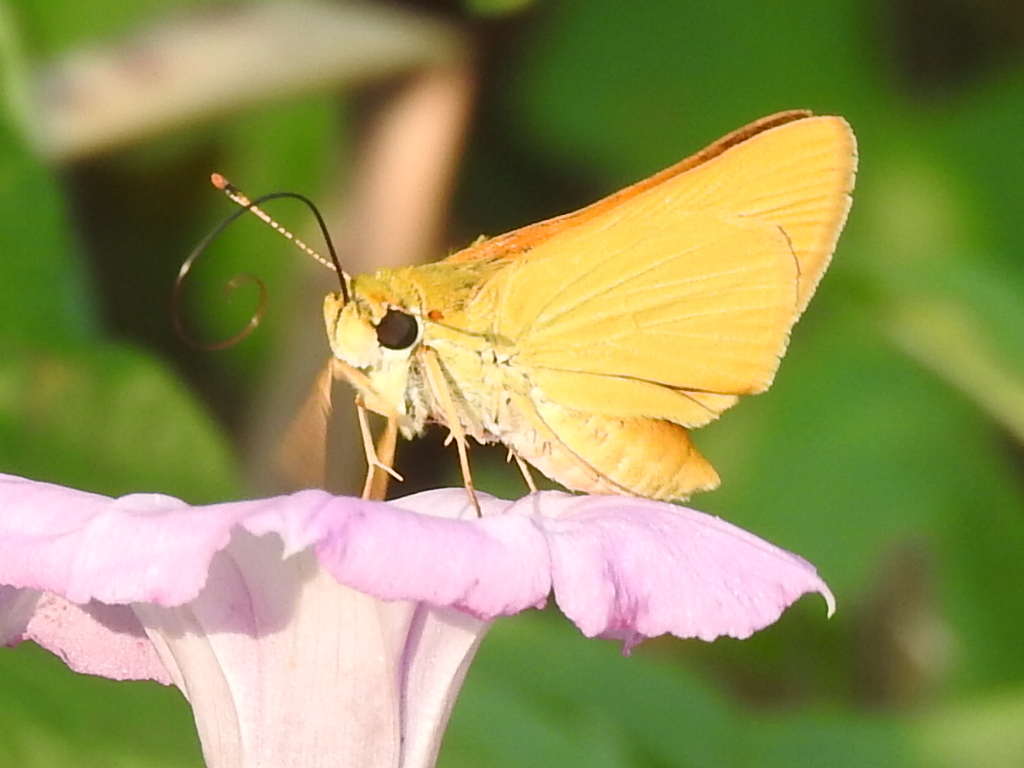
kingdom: Animalia
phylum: Arthropoda
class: Insecta
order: Lepidoptera
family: Hesperiidae
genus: Atrytone
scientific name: Atrytone delaware
